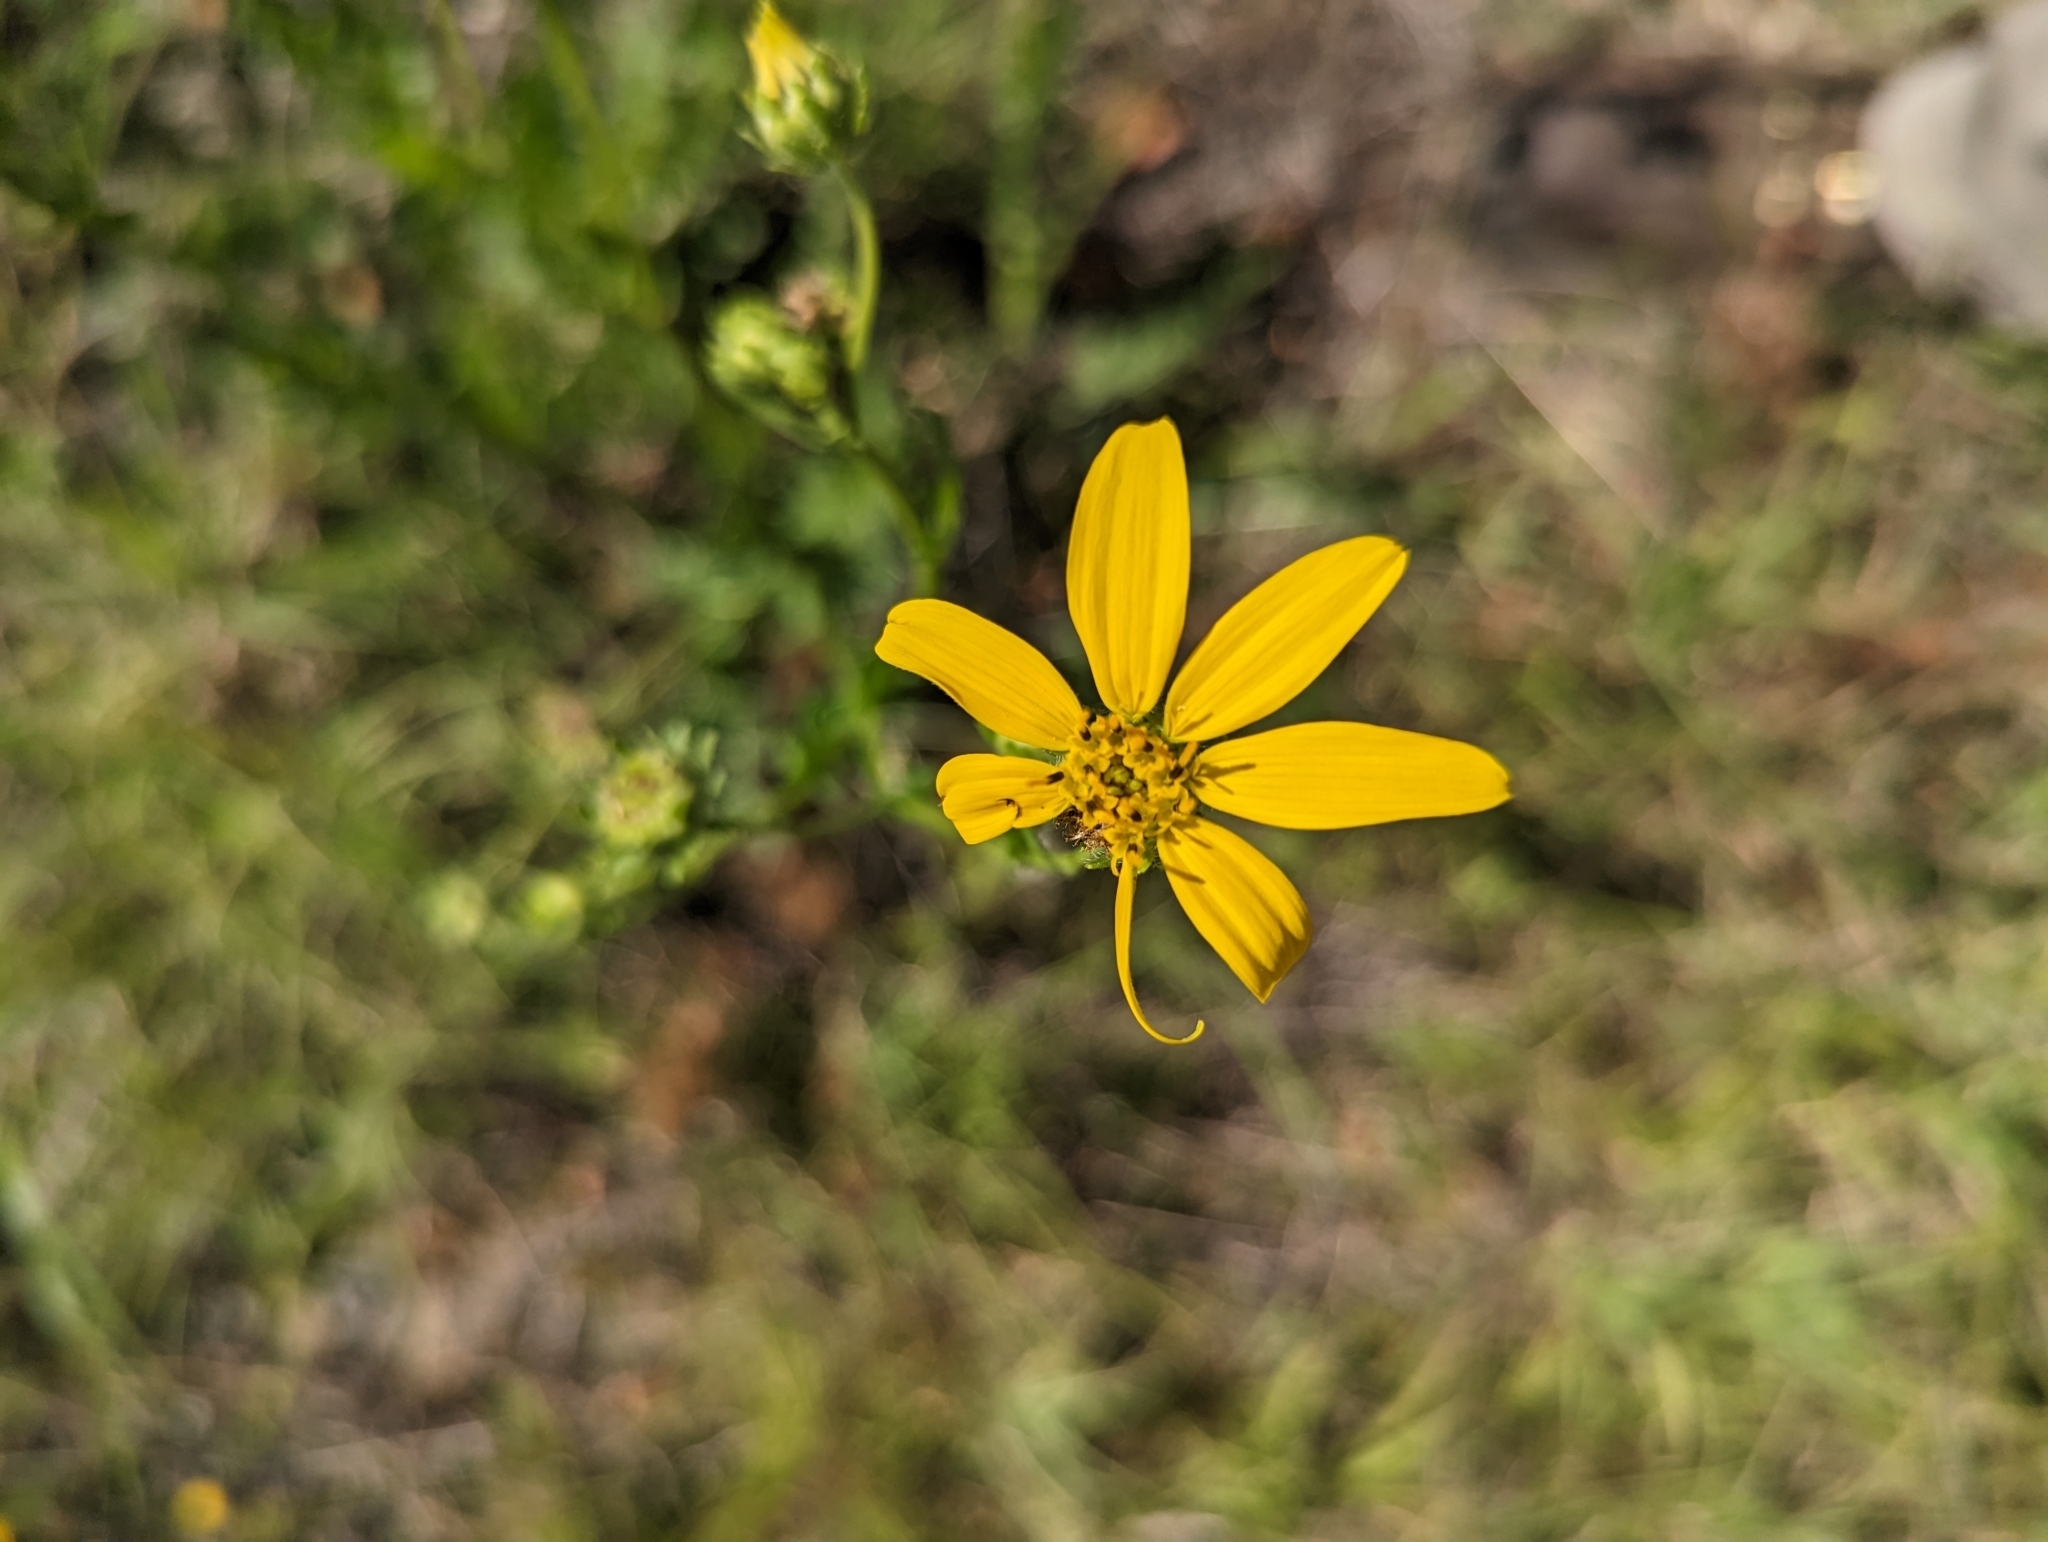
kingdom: Plantae
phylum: Tracheophyta
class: Magnoliopsida
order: Asterales
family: Asteraceae
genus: Engelmannia
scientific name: Engelmannia peristenia
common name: Engelmann's daisy
